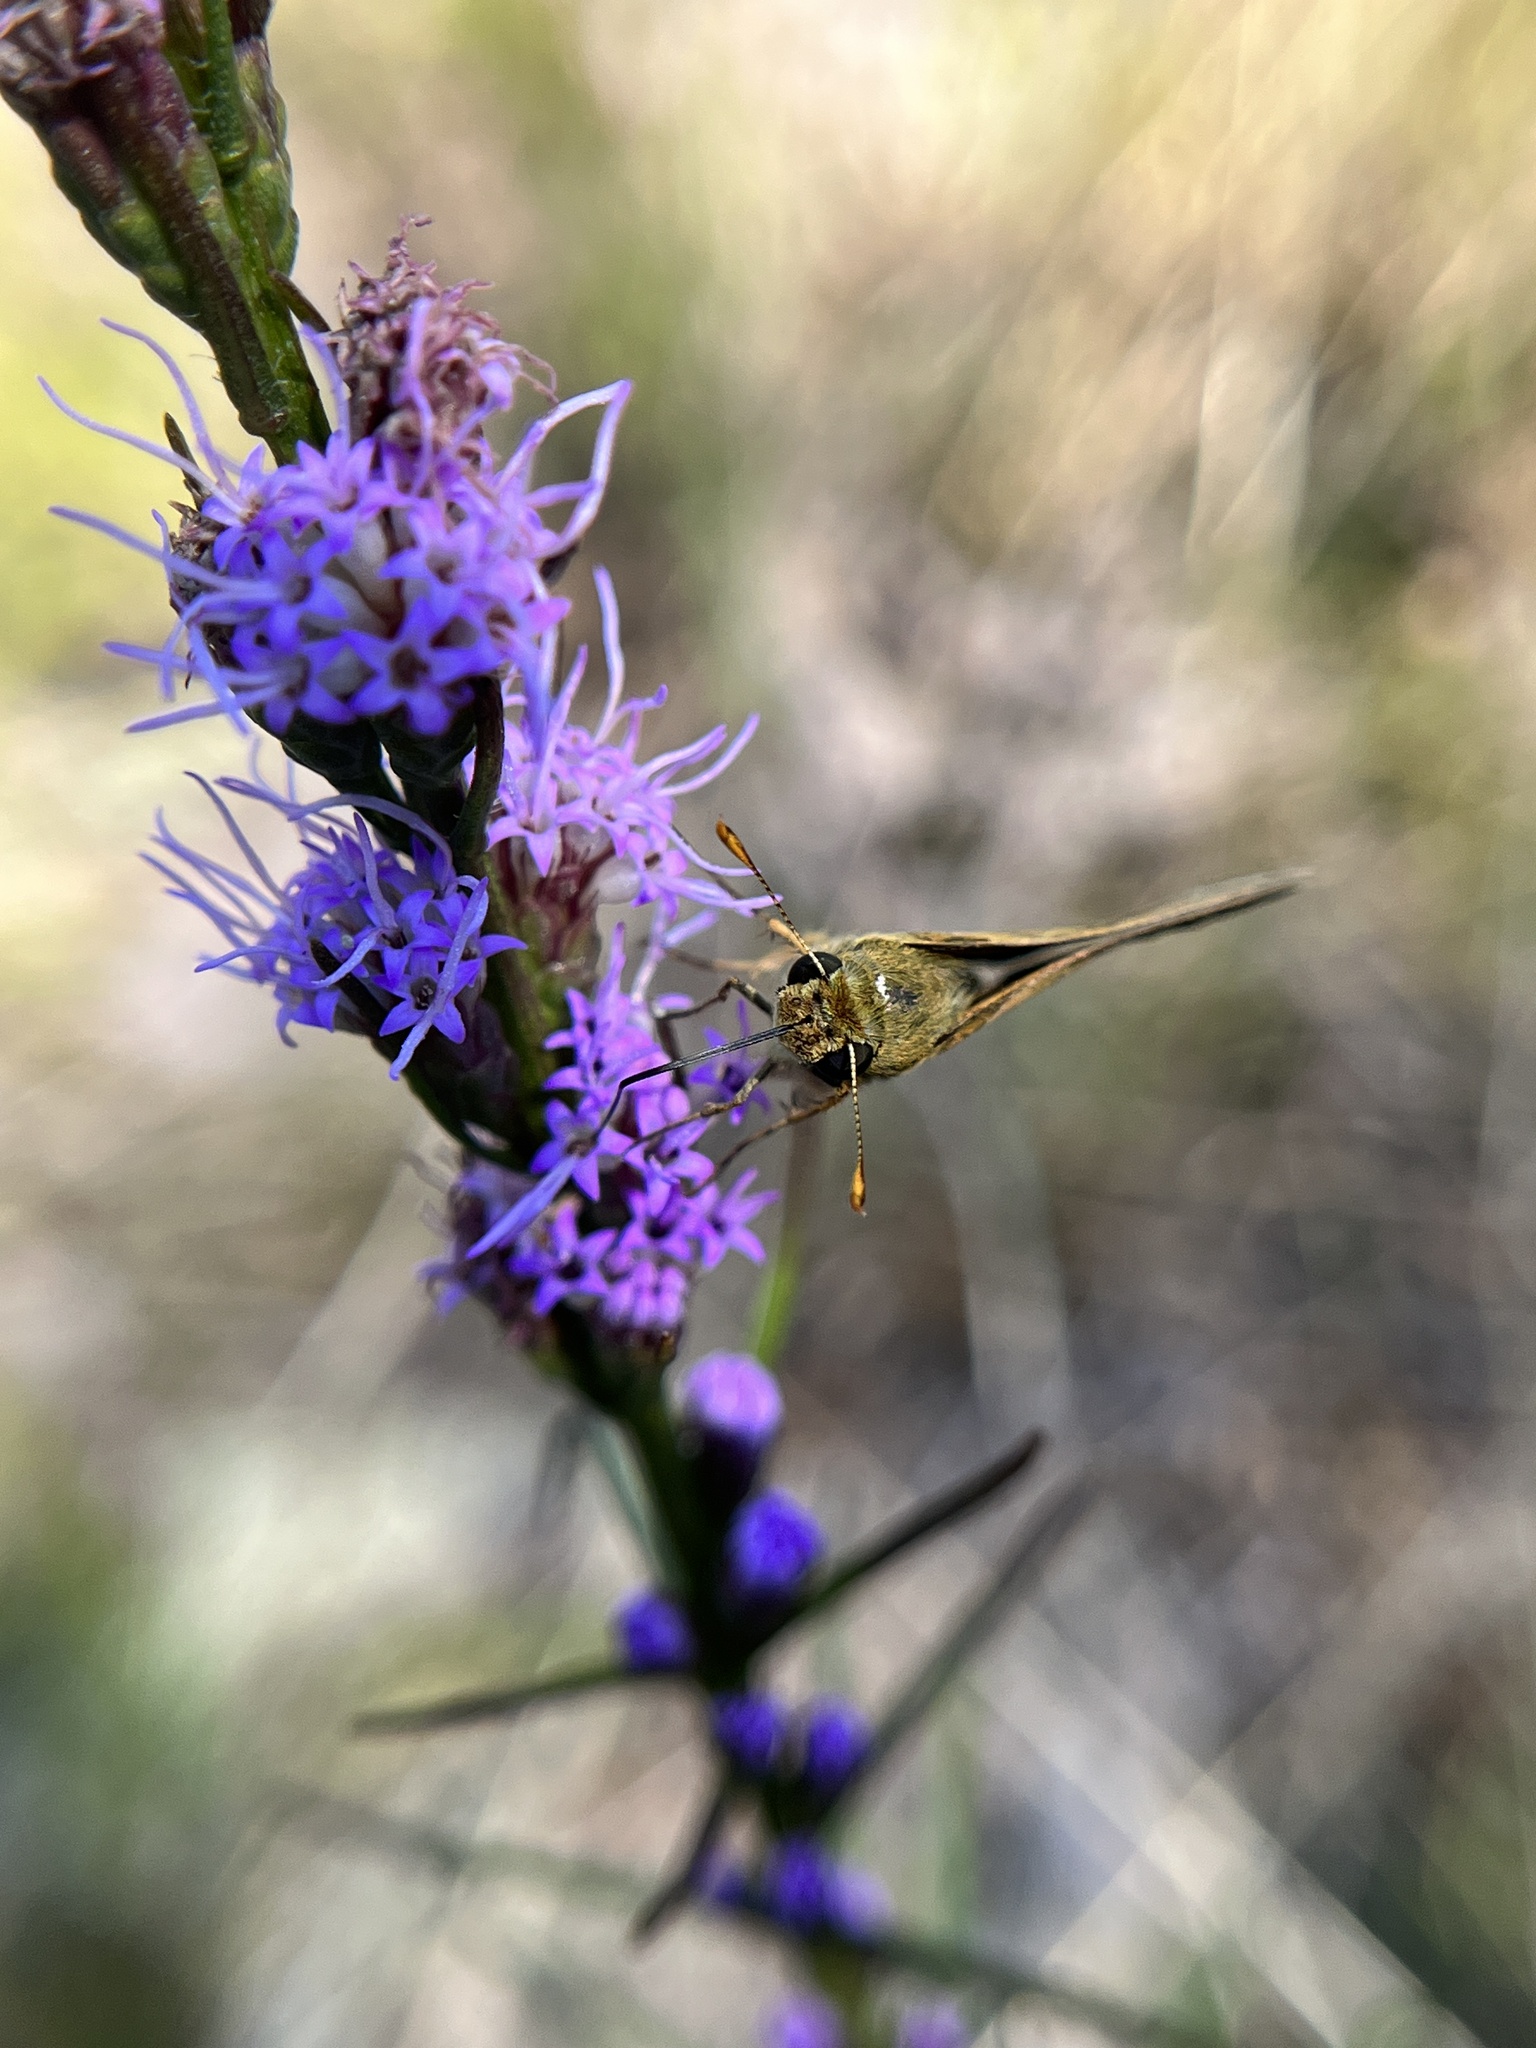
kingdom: Animalia
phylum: Arthropoda
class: Insecta
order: Lepidoptera
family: Hesperiidae
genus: Polites
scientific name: Polites origenes
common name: Crossline skipper
